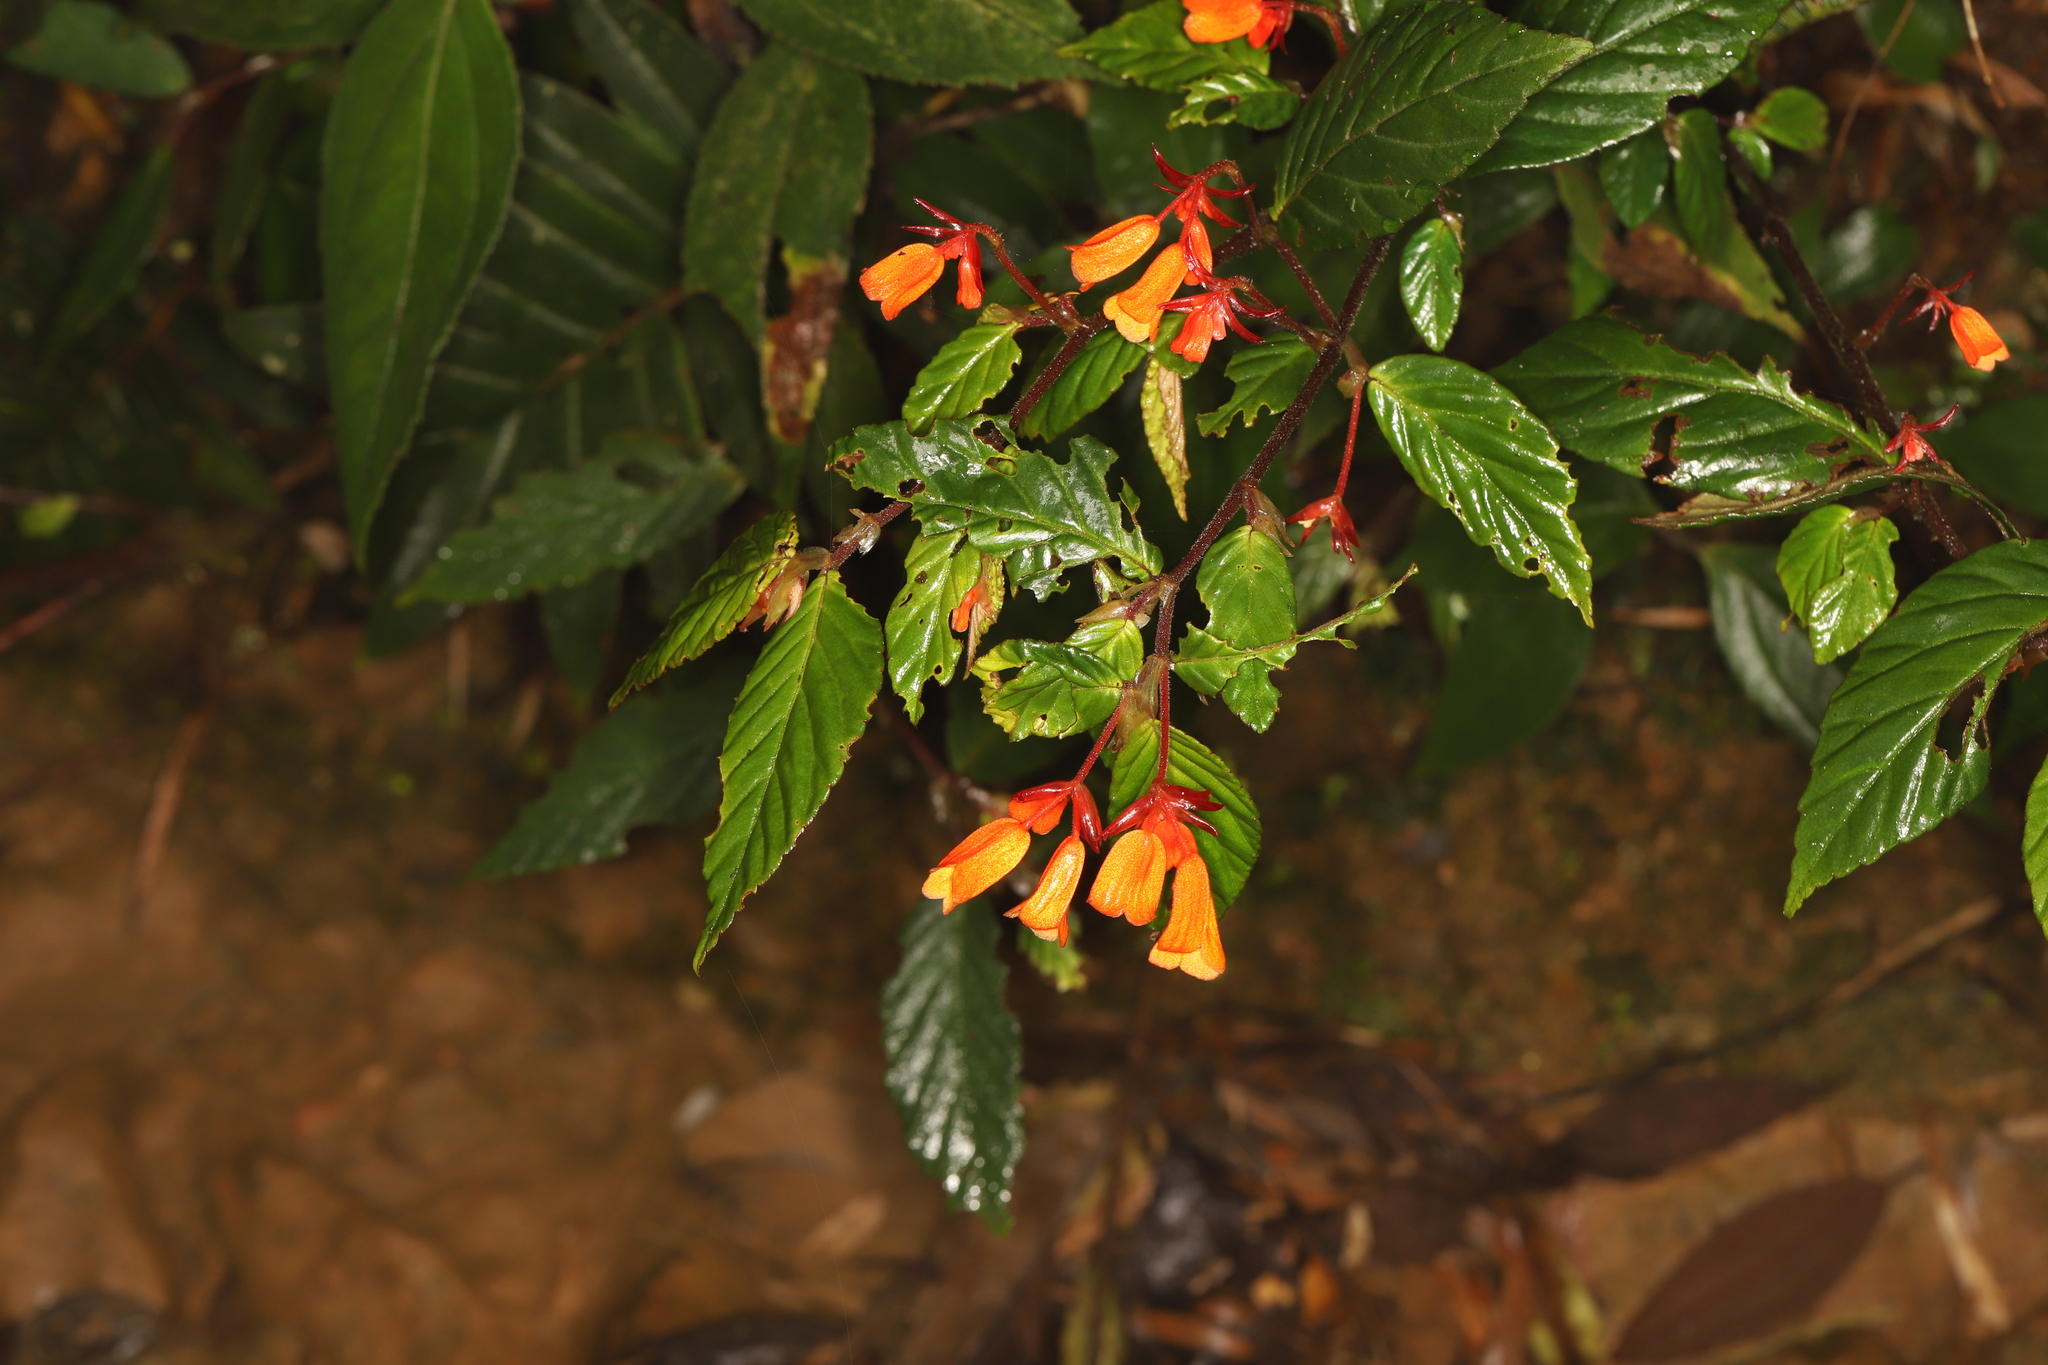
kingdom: Plantae
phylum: Tracheophyta
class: Magnoliopsida
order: Cucurbitales
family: Begoniaceae
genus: Begonia
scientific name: Begonia lehmannii
